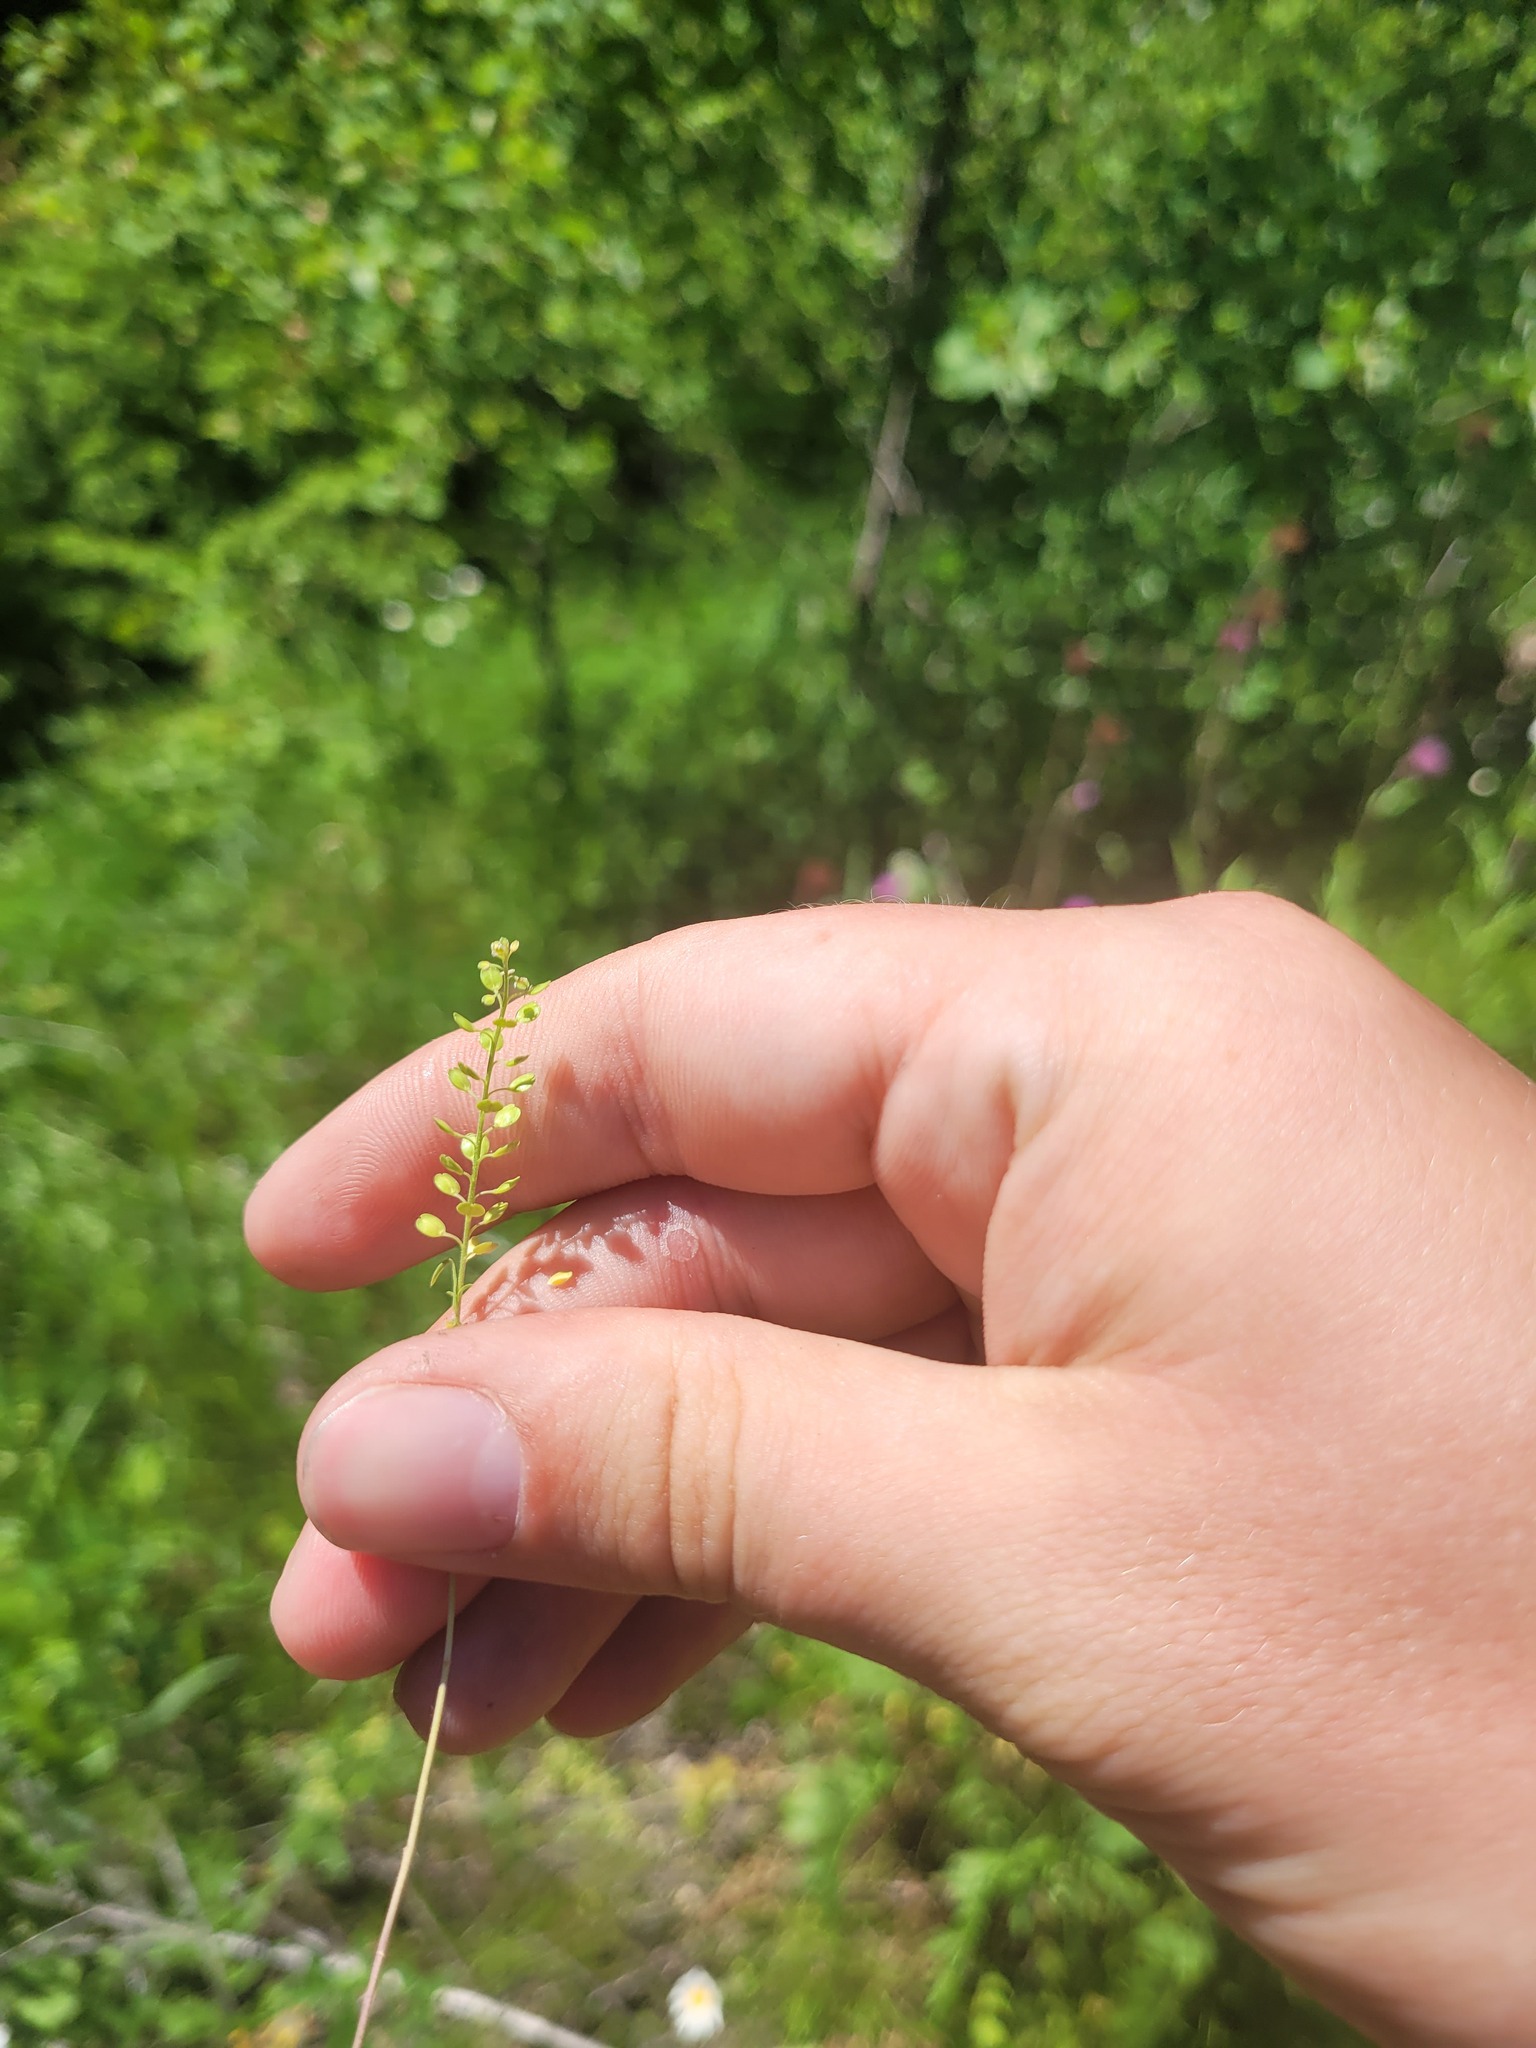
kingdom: Plantae
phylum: Tracheophyta
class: Magnoliopsida
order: Brassicales
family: Brassicaceae
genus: Lepidium
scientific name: Lepidium densiflorum
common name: Miner's pepperwort
